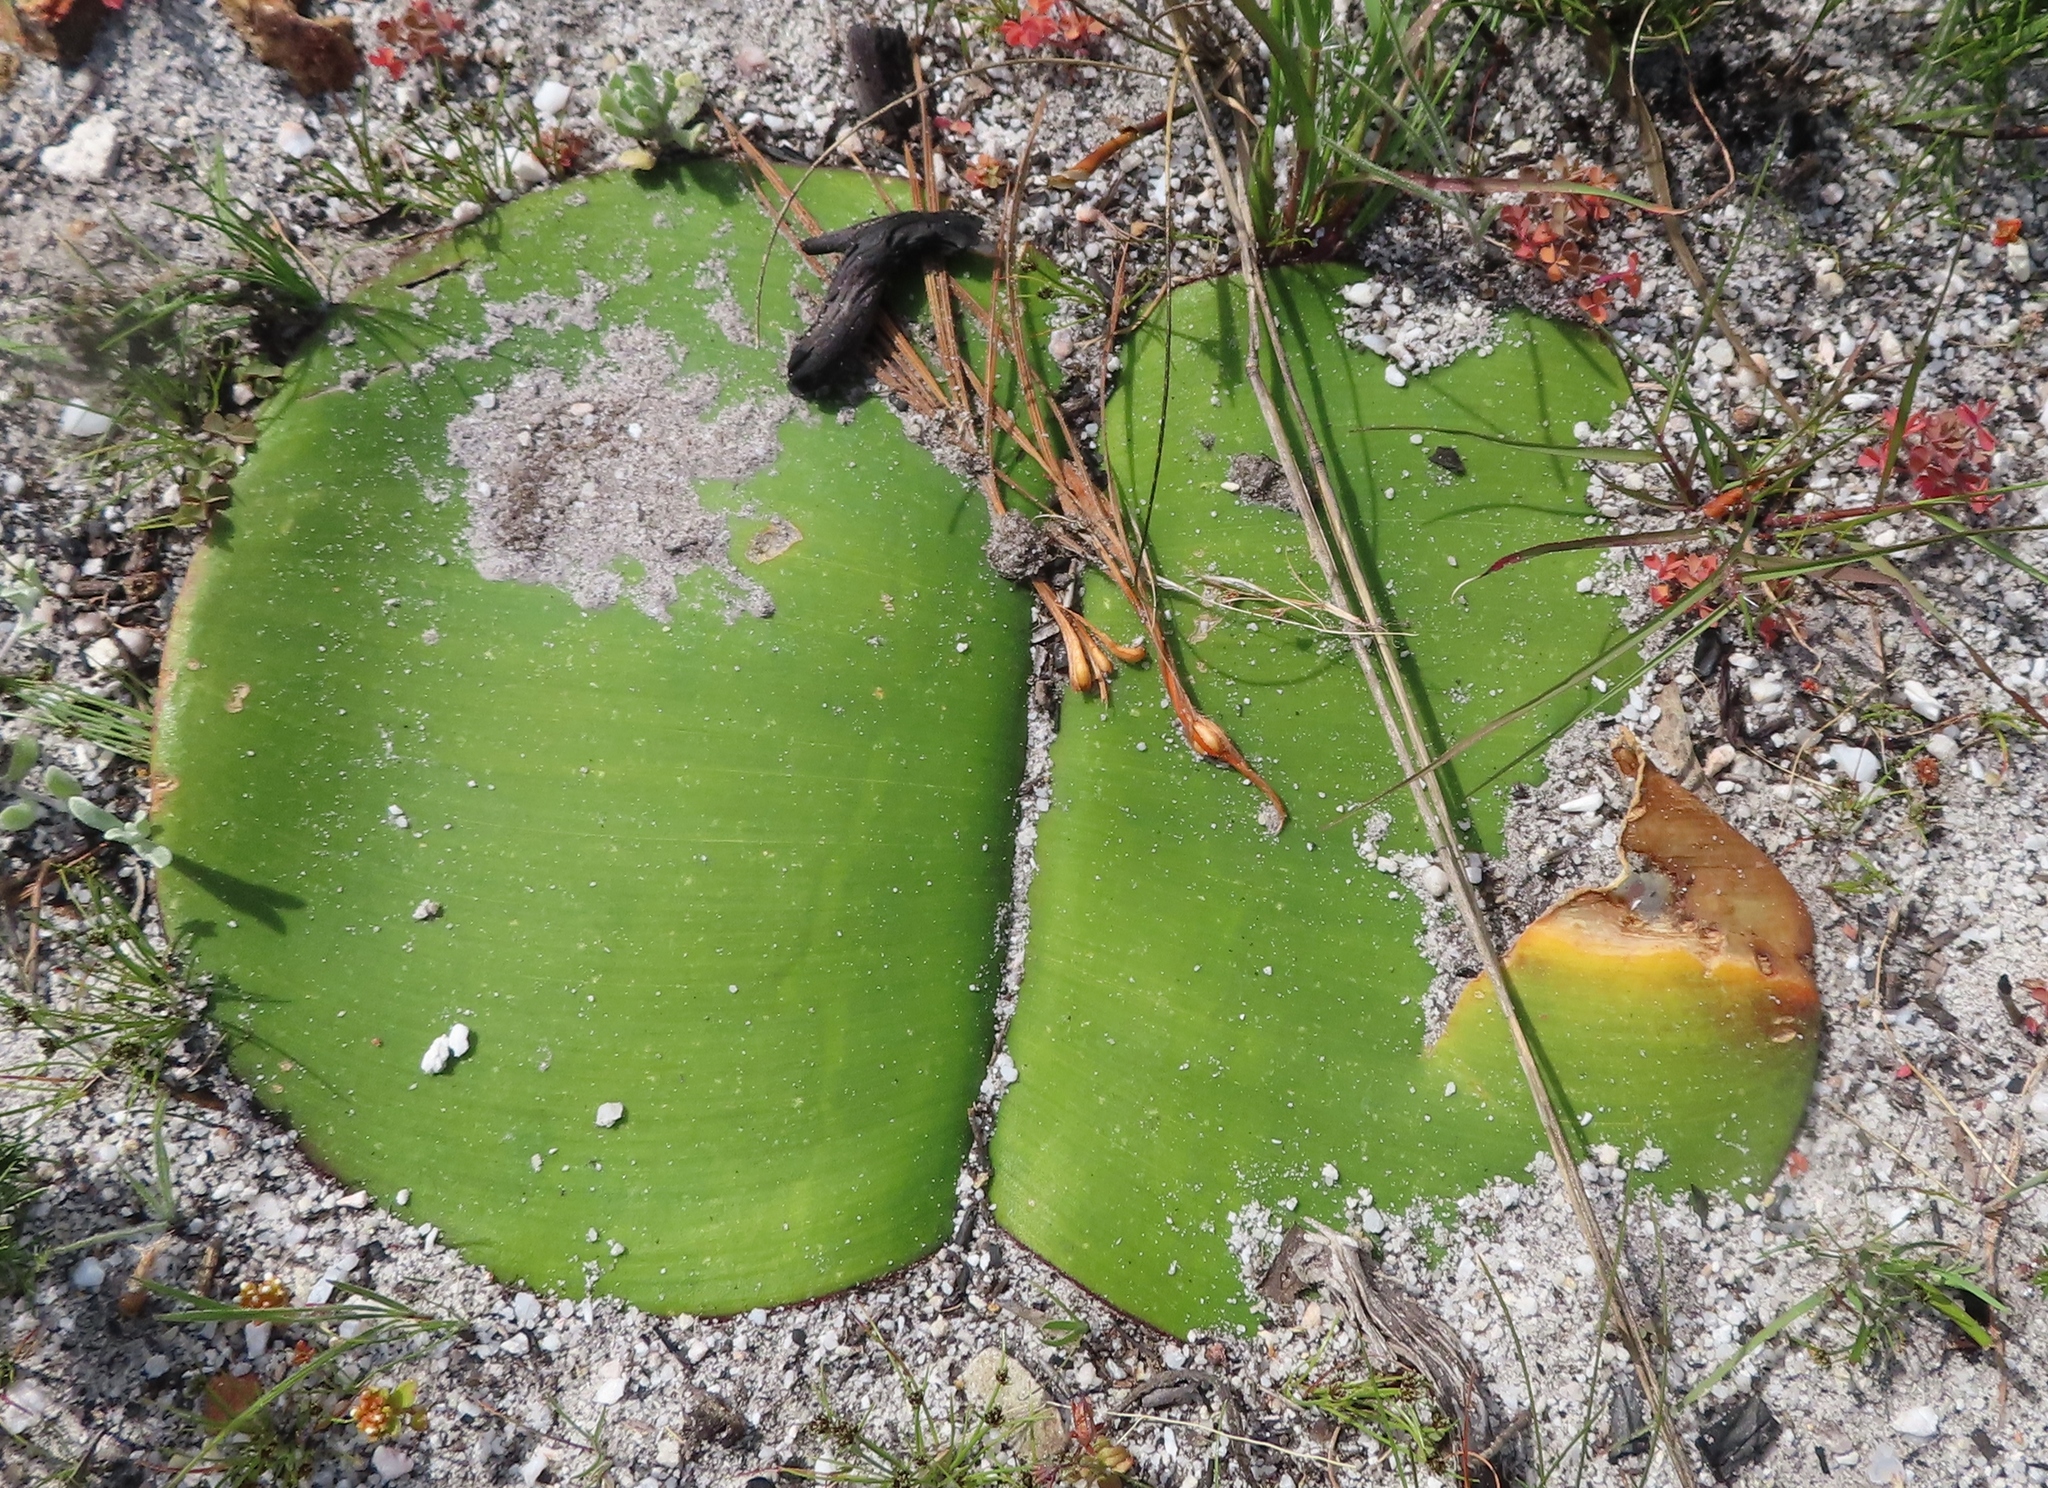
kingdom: Plantae
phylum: Tracheophyta
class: Liliopsida
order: Asparagales
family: Amaryllidaceae
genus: Haemanthus
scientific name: Haemanthus sanguineus
